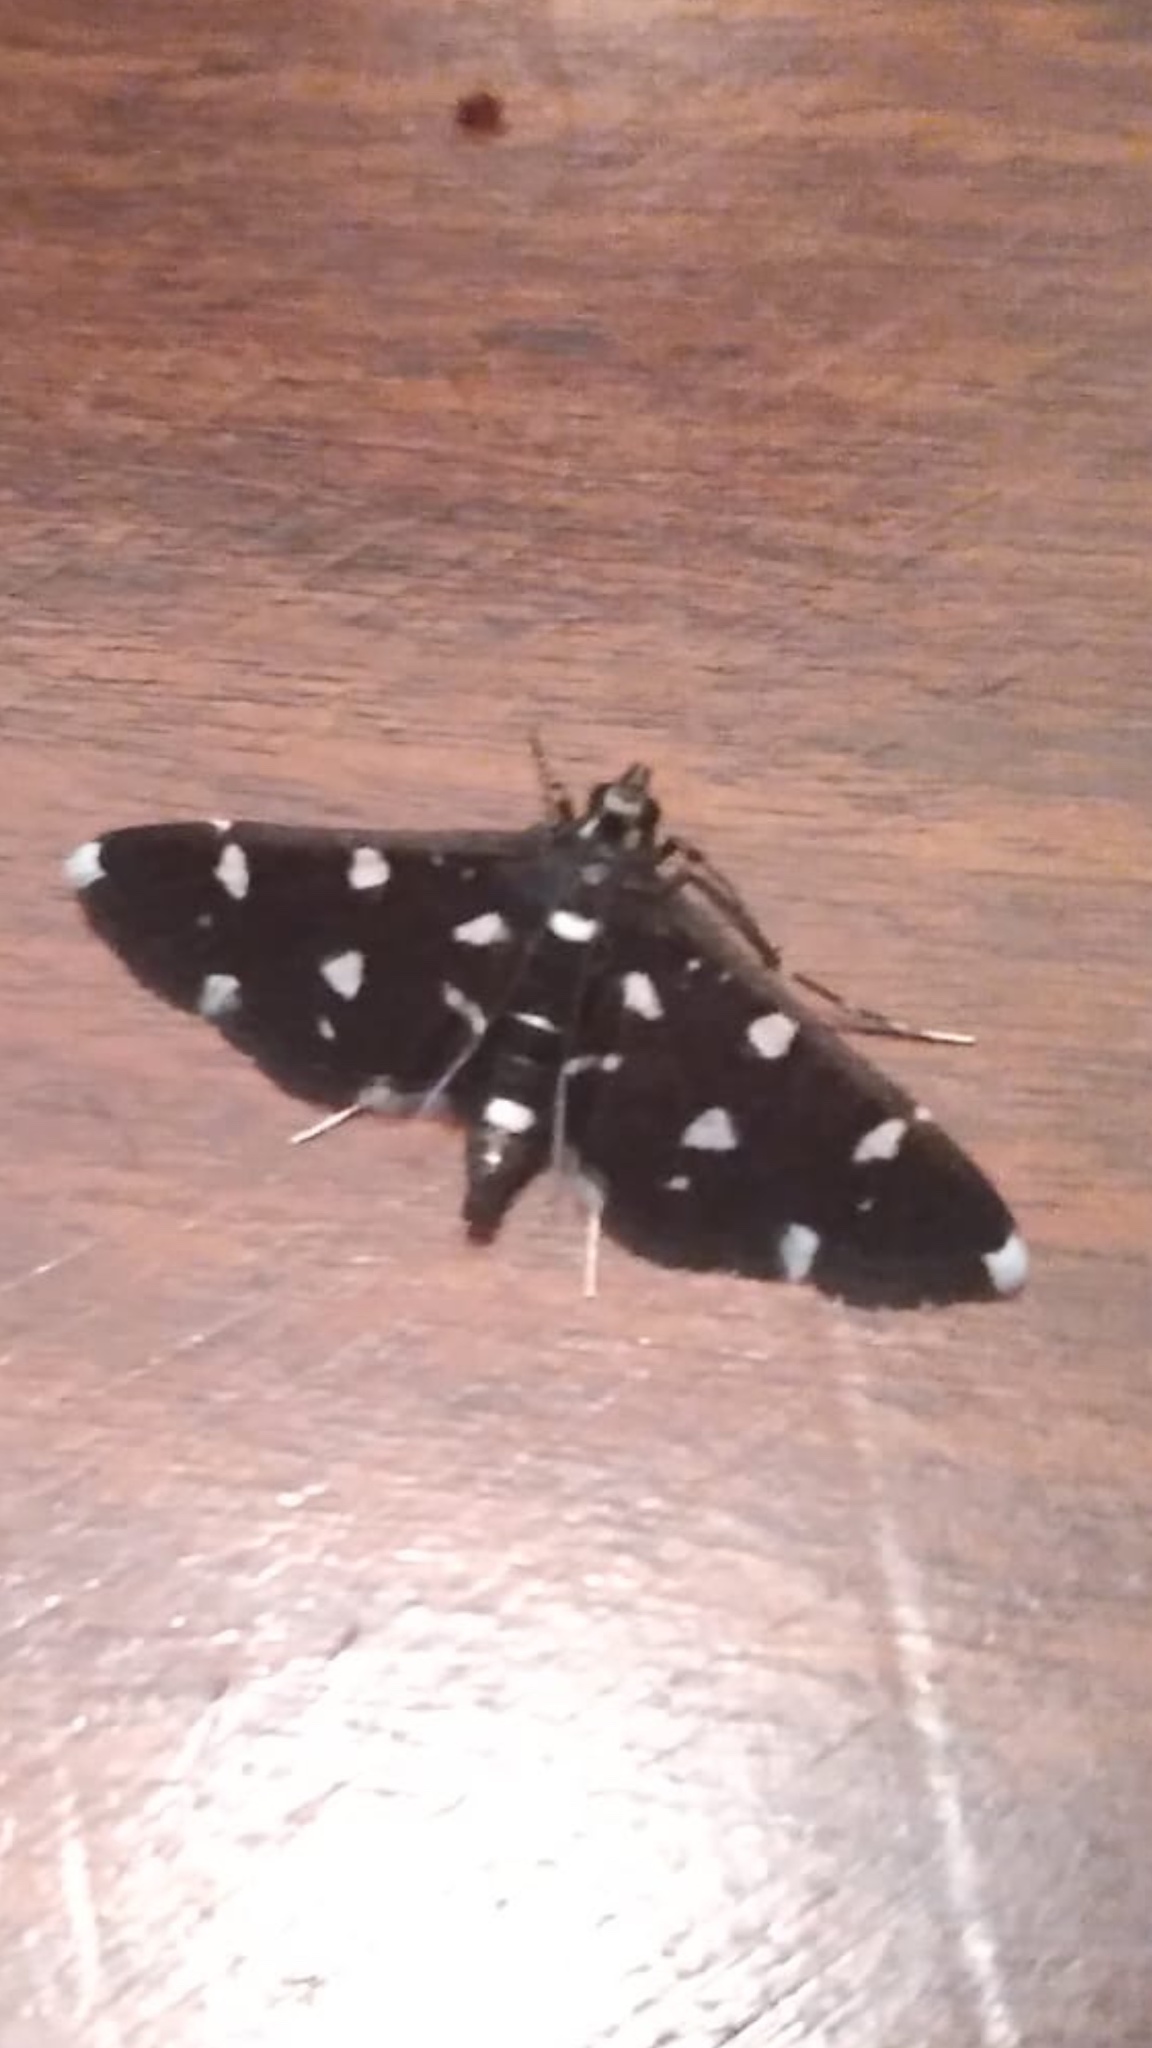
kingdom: Animalia
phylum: Arthropoda
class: Insecta
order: Lepidoptera
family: Crambidae
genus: Bocchoris
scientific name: Bocchoris inspersalis
